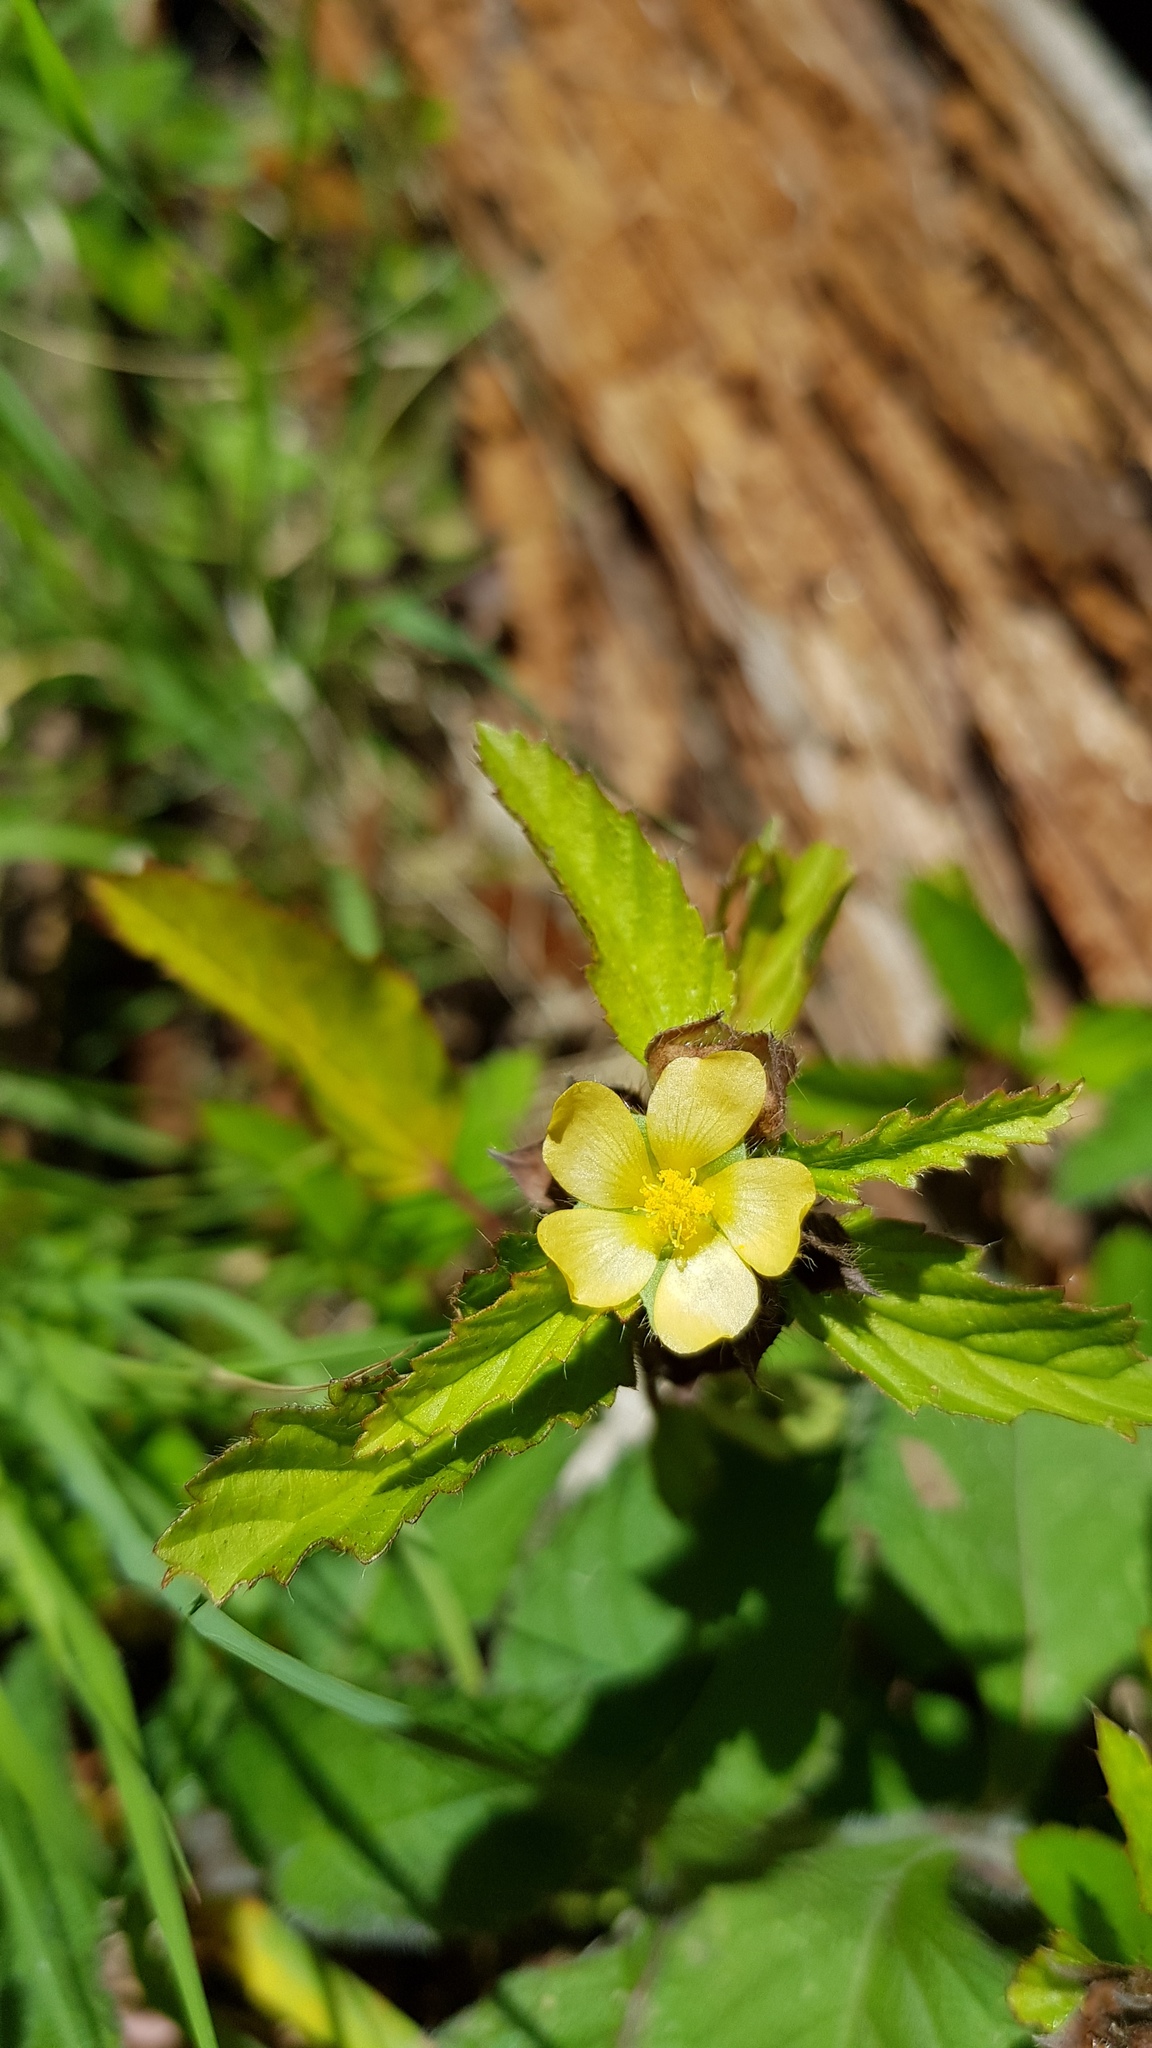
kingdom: Plantae
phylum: Tracheophyta
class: Magnoliopsida
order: Malvales
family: Malvaceae
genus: Sida
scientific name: Sida rhombifolia
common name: Queensland-hemp
